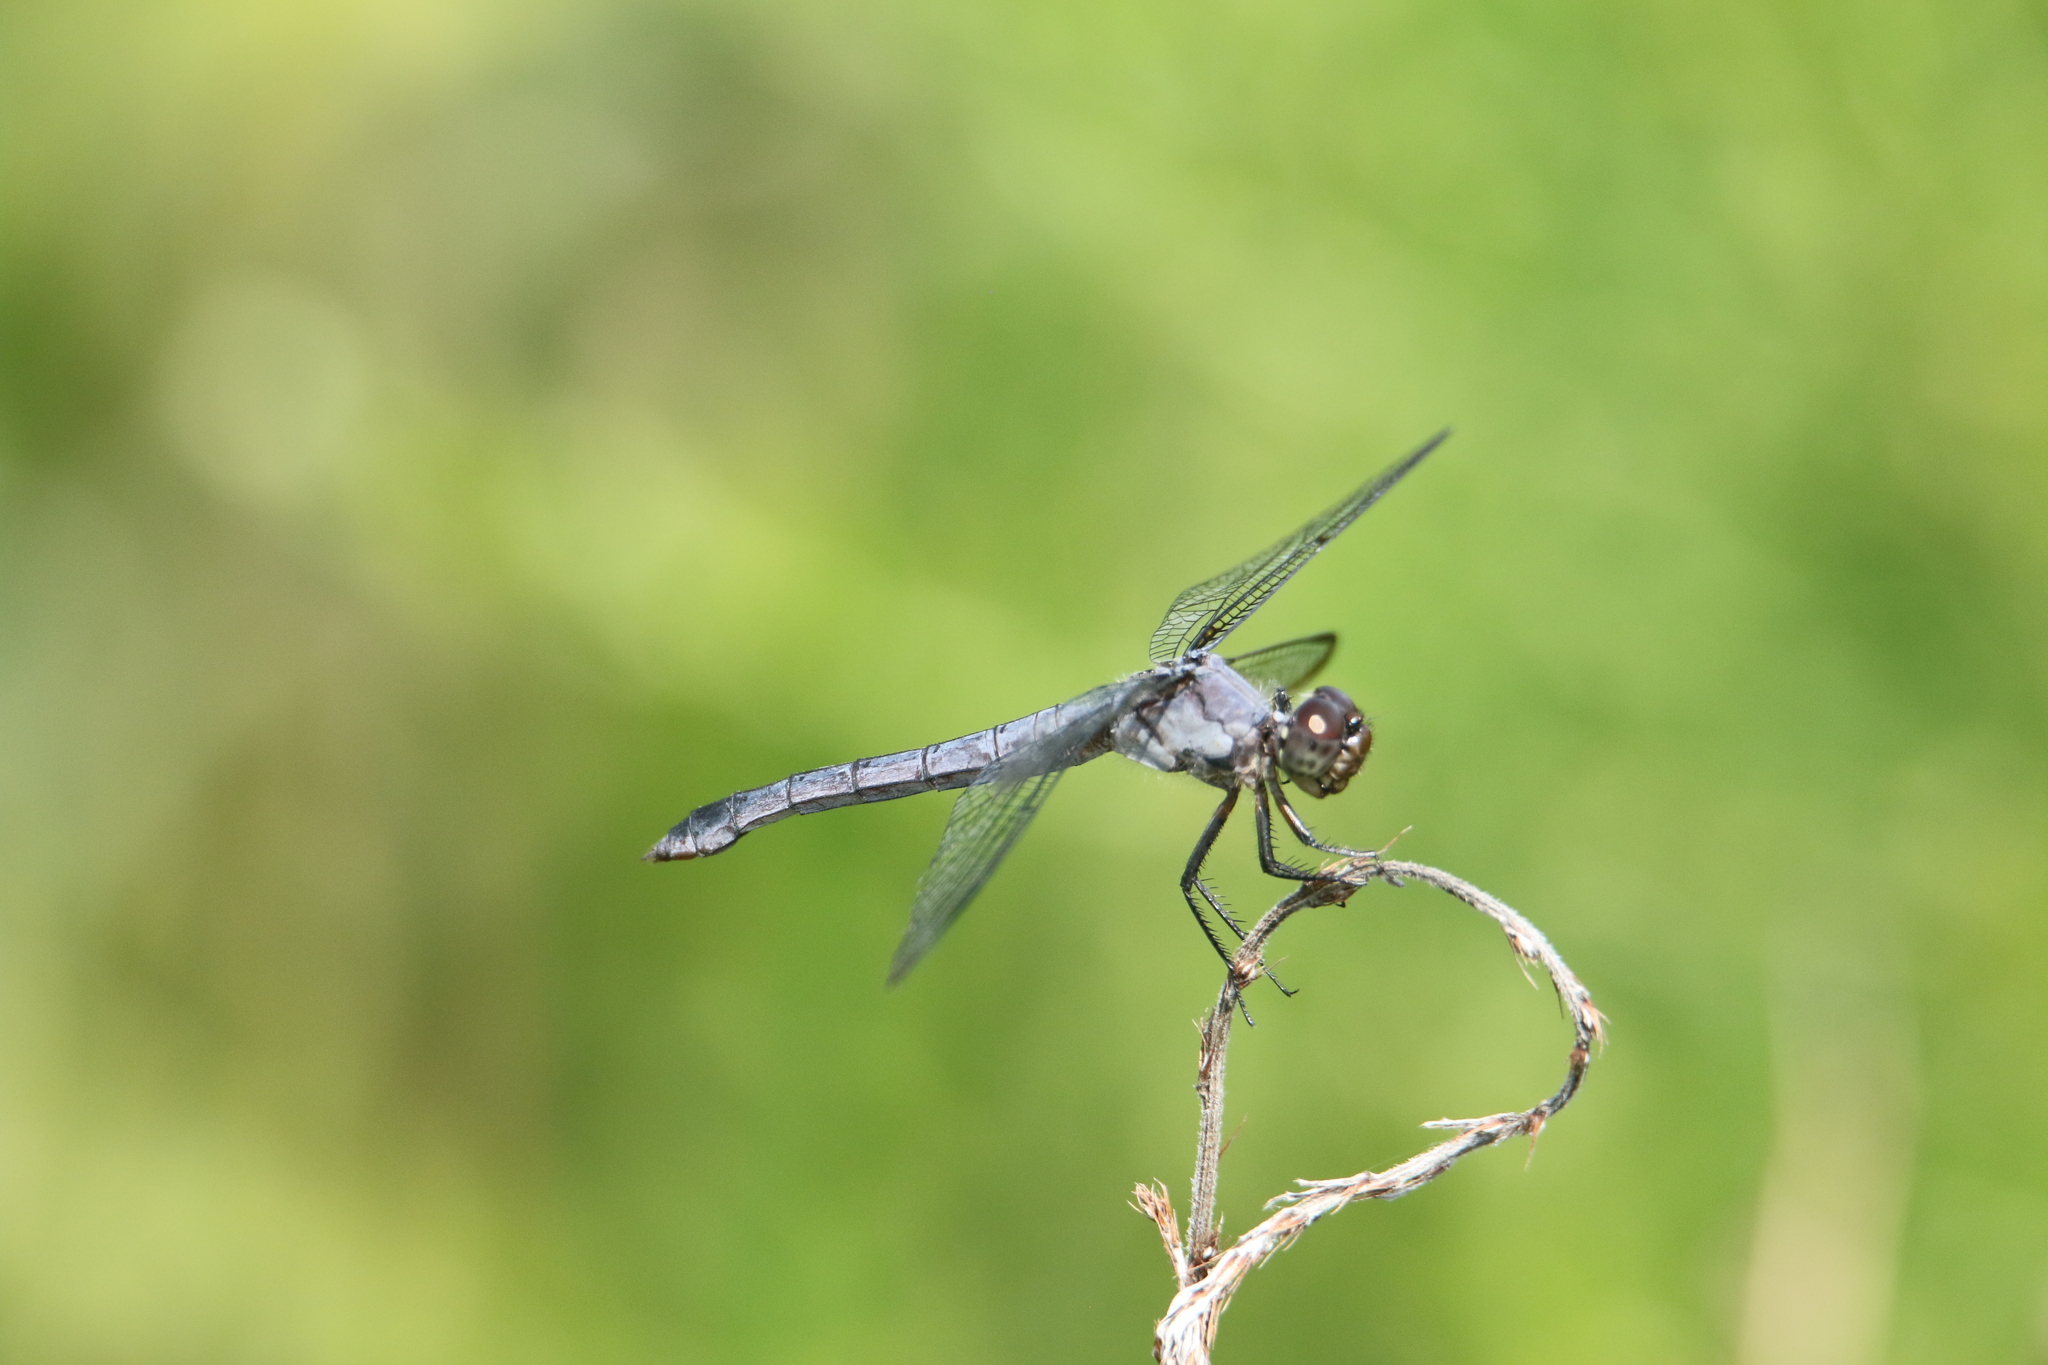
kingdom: Animalia
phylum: Arthropoda
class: Insecta
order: Odonata
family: Libellulidae
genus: Libellula
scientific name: Libellula incesta
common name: Slaty skimmer
